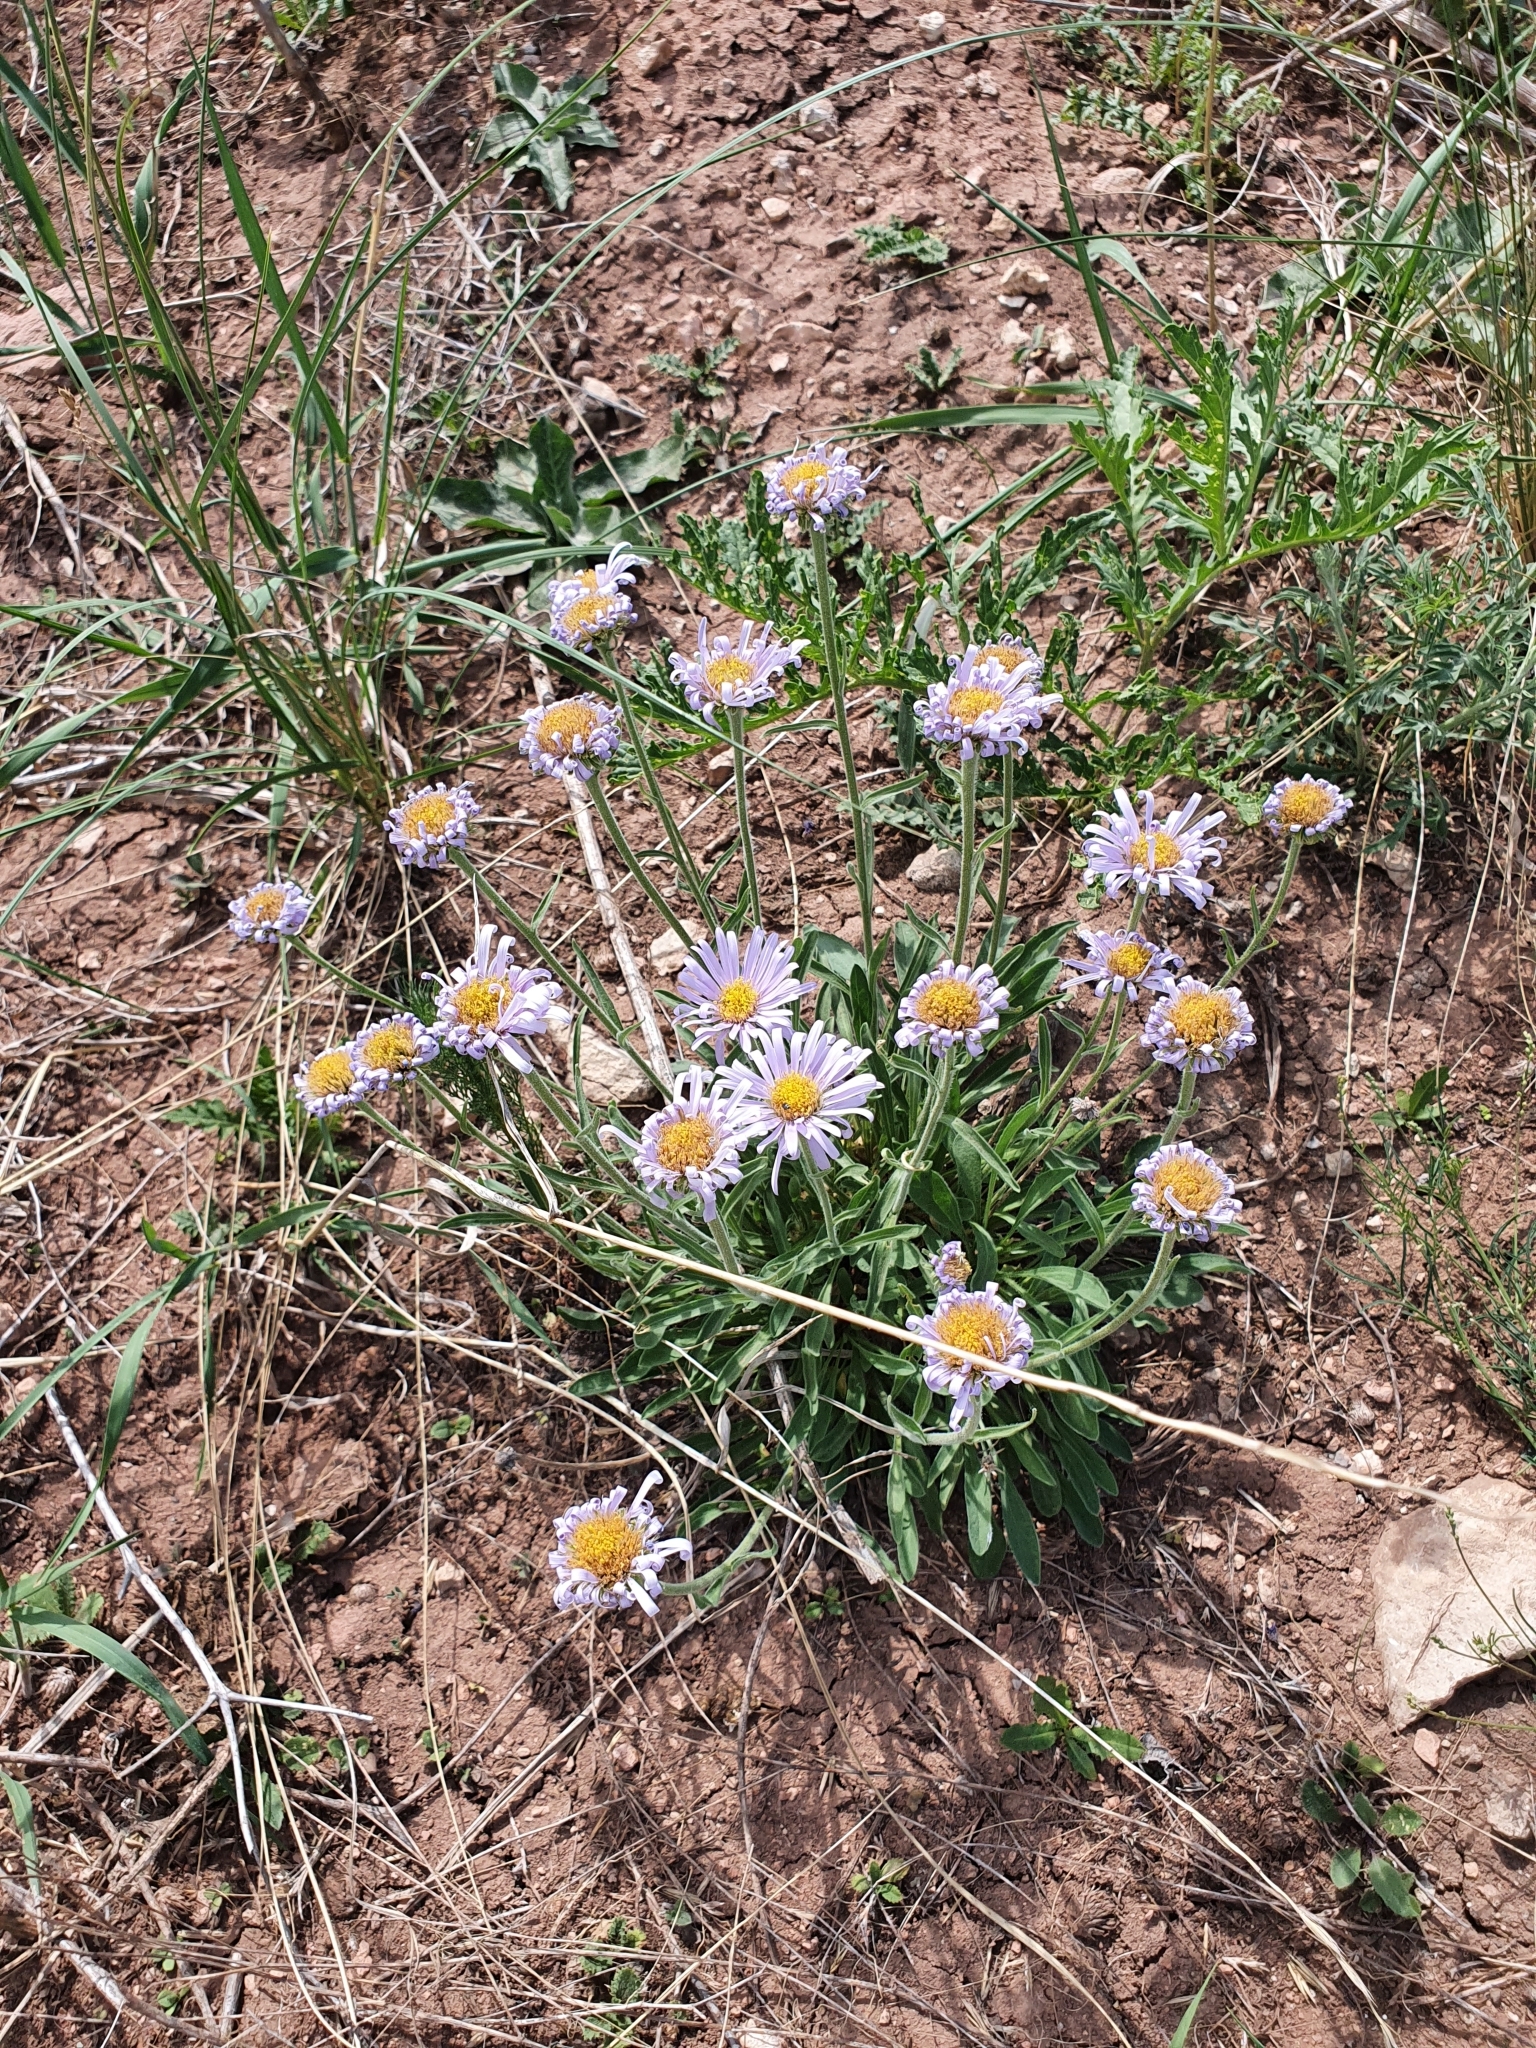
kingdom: Plantae
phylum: Tracheophyta
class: Magnoliopsida
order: Asterales
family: Asteraceae
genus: Aster
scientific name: Aster alpinus
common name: Alpine aster
